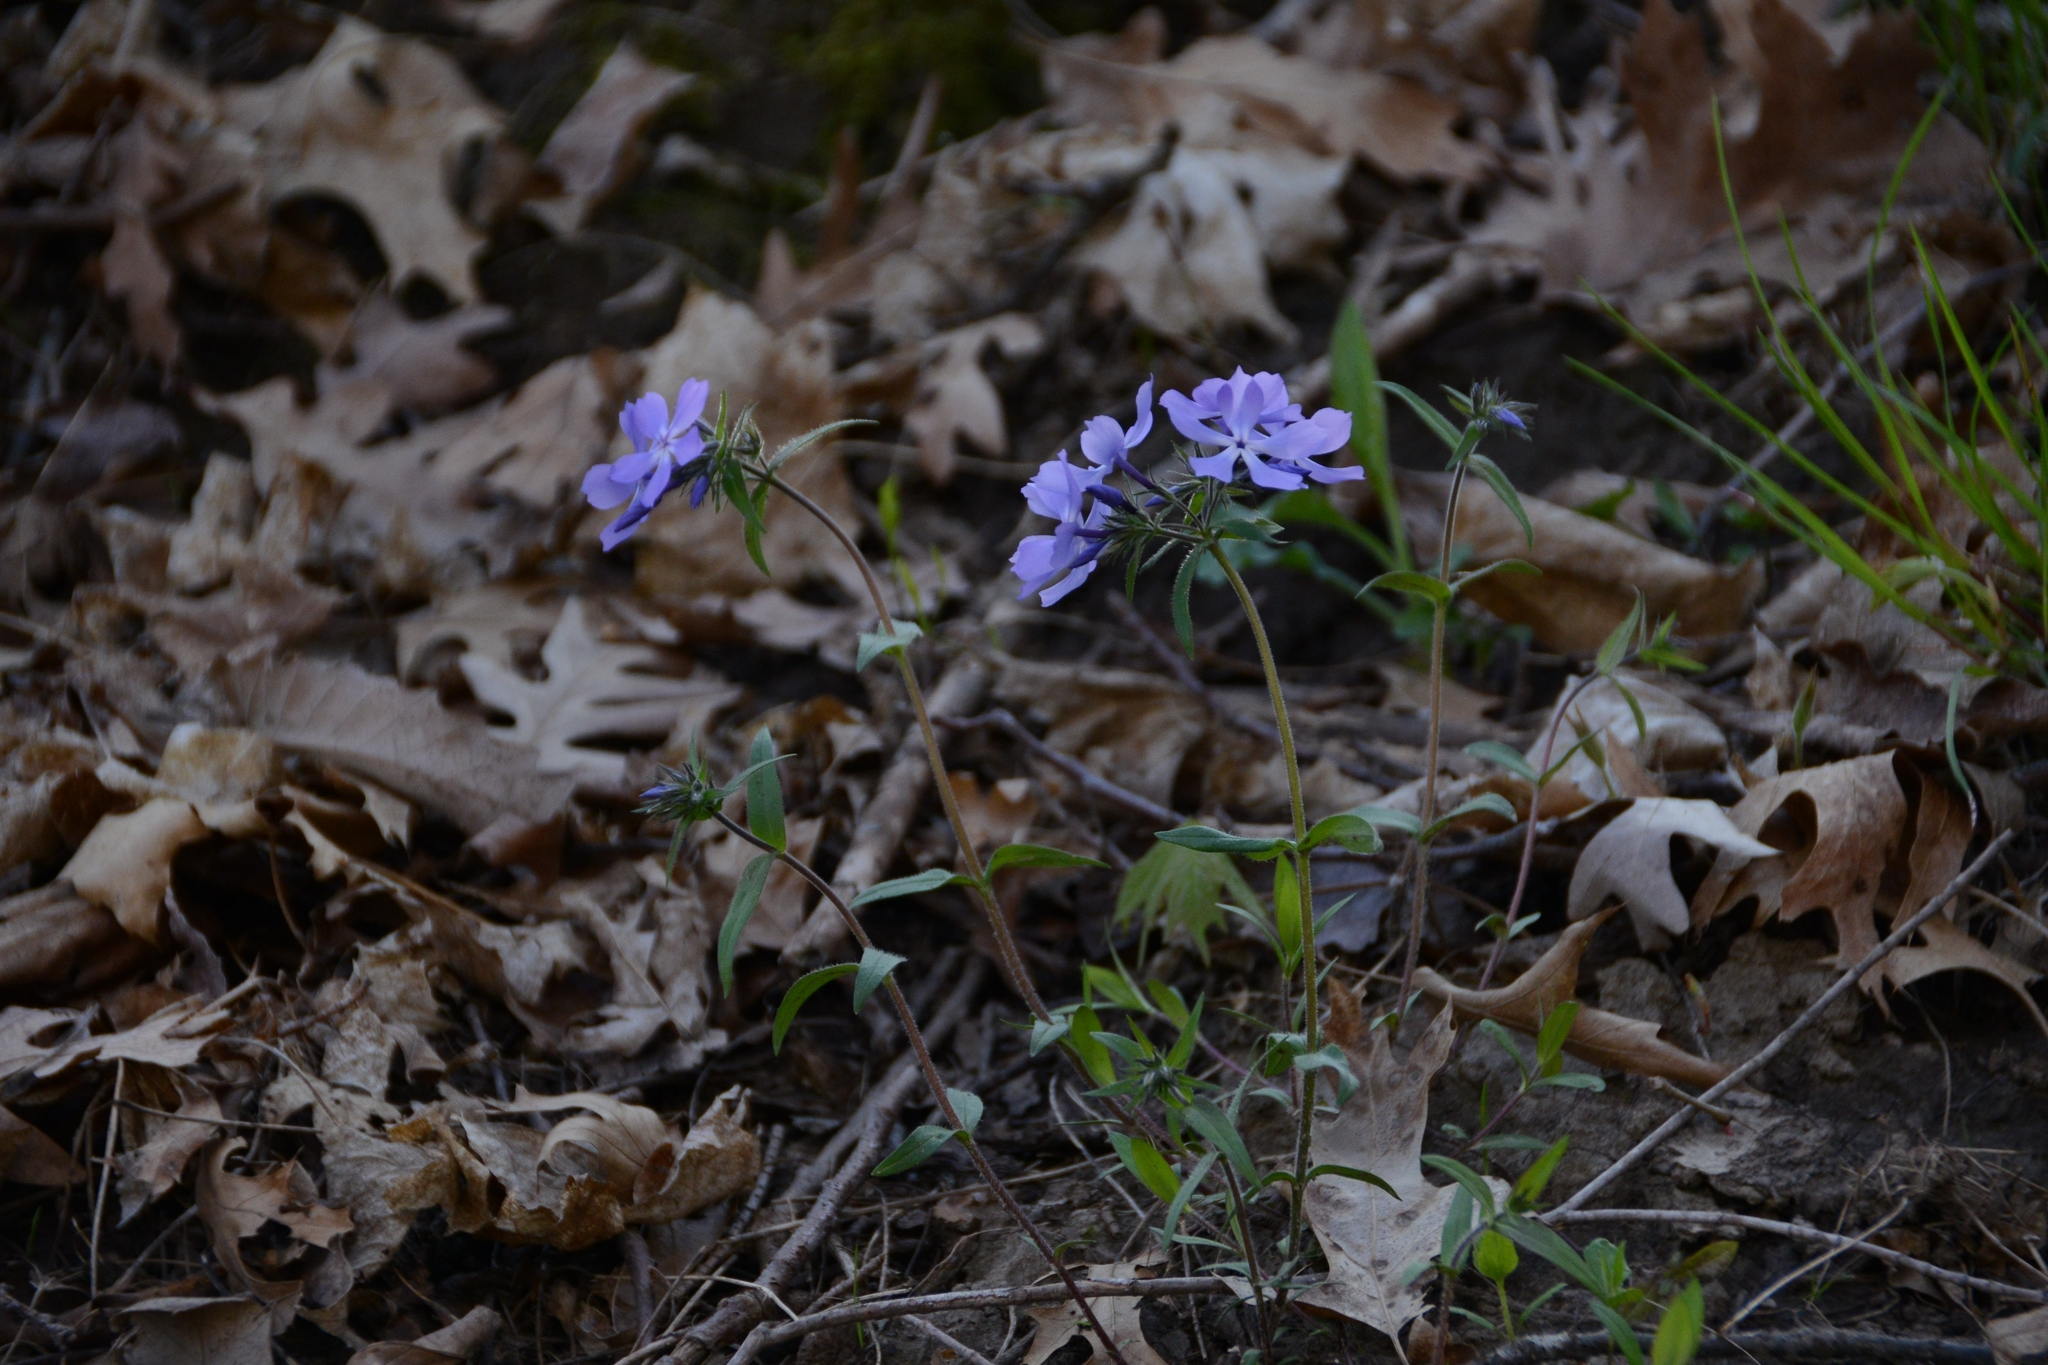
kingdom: Plantae
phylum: Tracheophyta
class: Magnoliopsida
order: Ericales
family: Polemoniaceae
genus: Phlox
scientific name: Phlox divaricata
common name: Blue phlox
